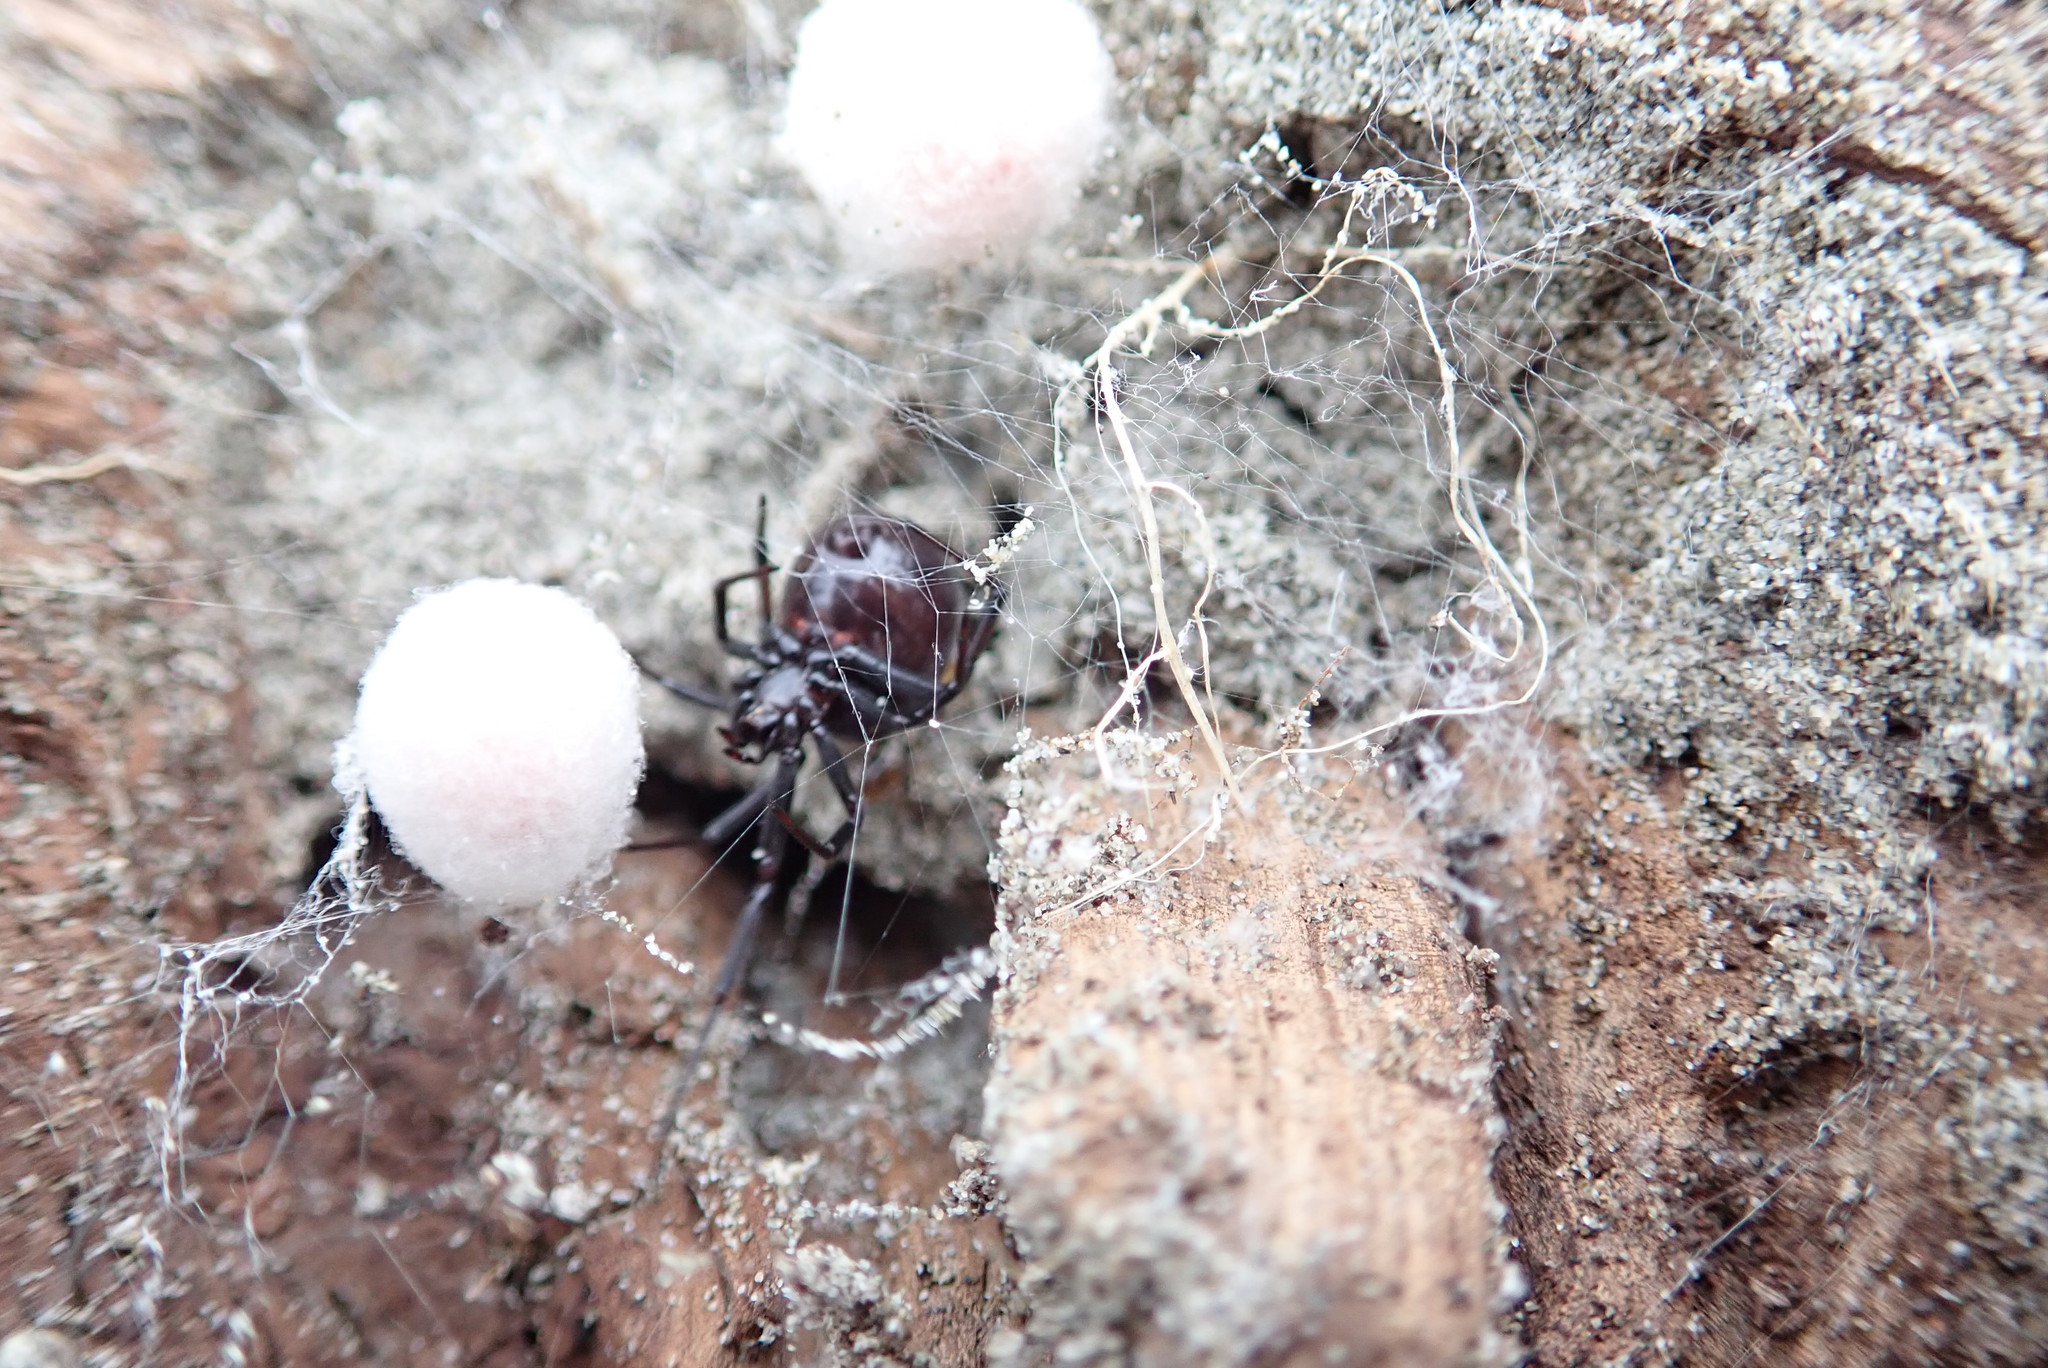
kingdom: Animalia
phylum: Arthropoda
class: Arachnida
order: Araneae
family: Theridiidae
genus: Steatoda
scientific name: Steatoda capensis
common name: Cobweb weaver
